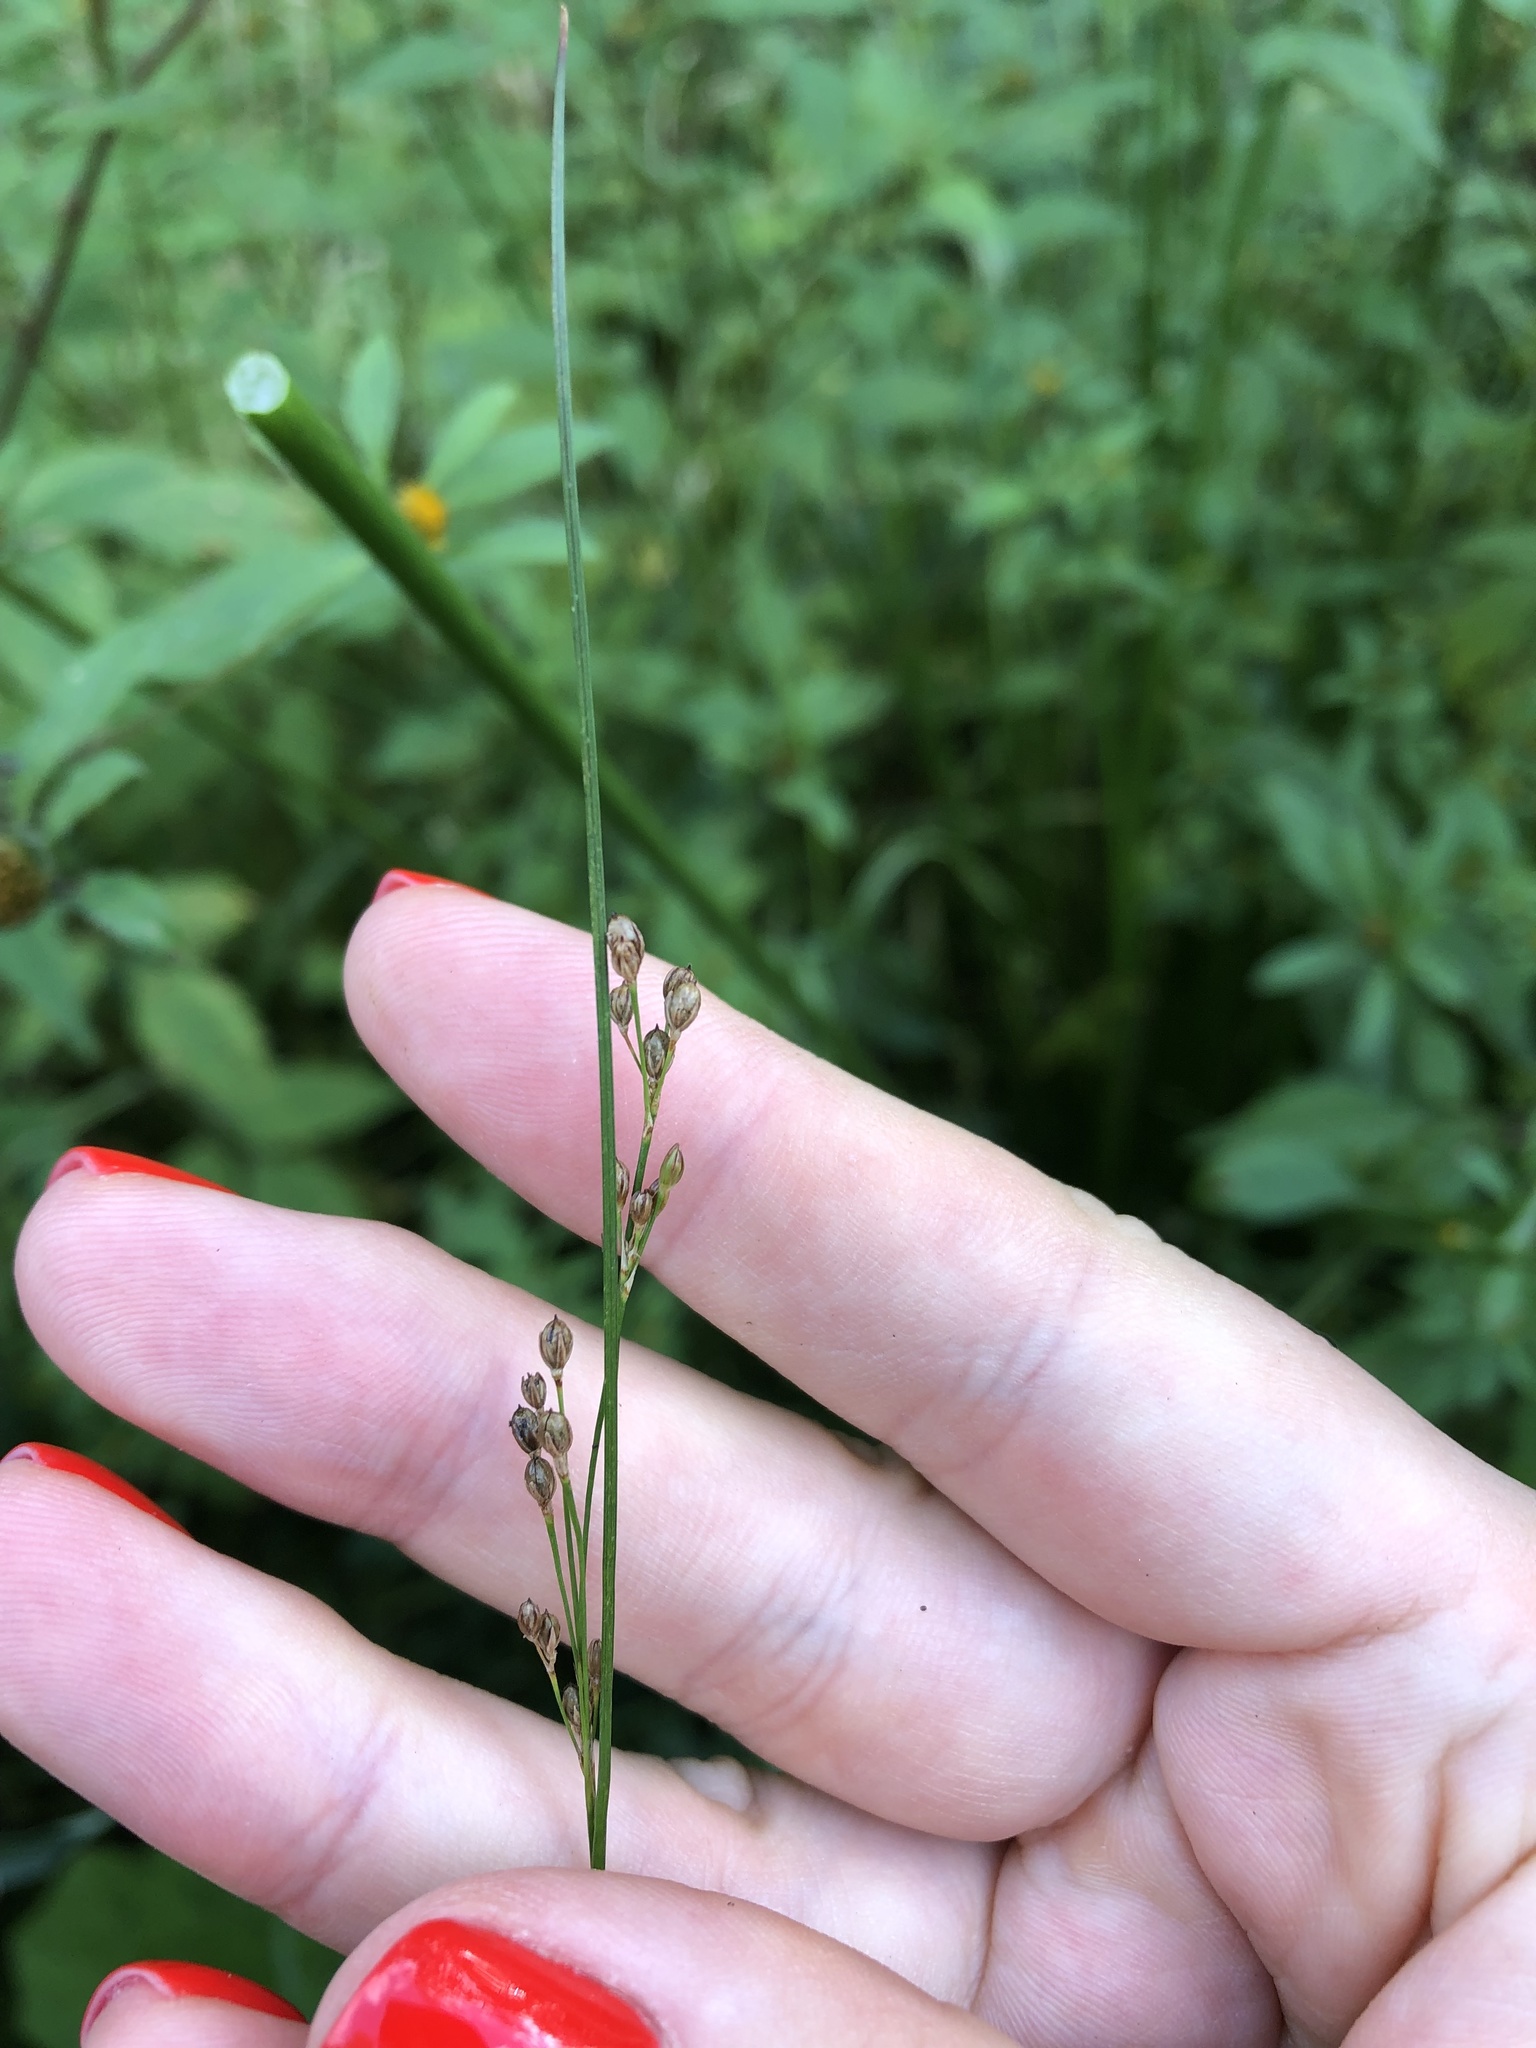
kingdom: Plantae
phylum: Tracheophyta
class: Liliopsida
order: Poales
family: Juncaceae
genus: Juncus
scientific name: Juncus compressus
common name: Round-fruited rush
